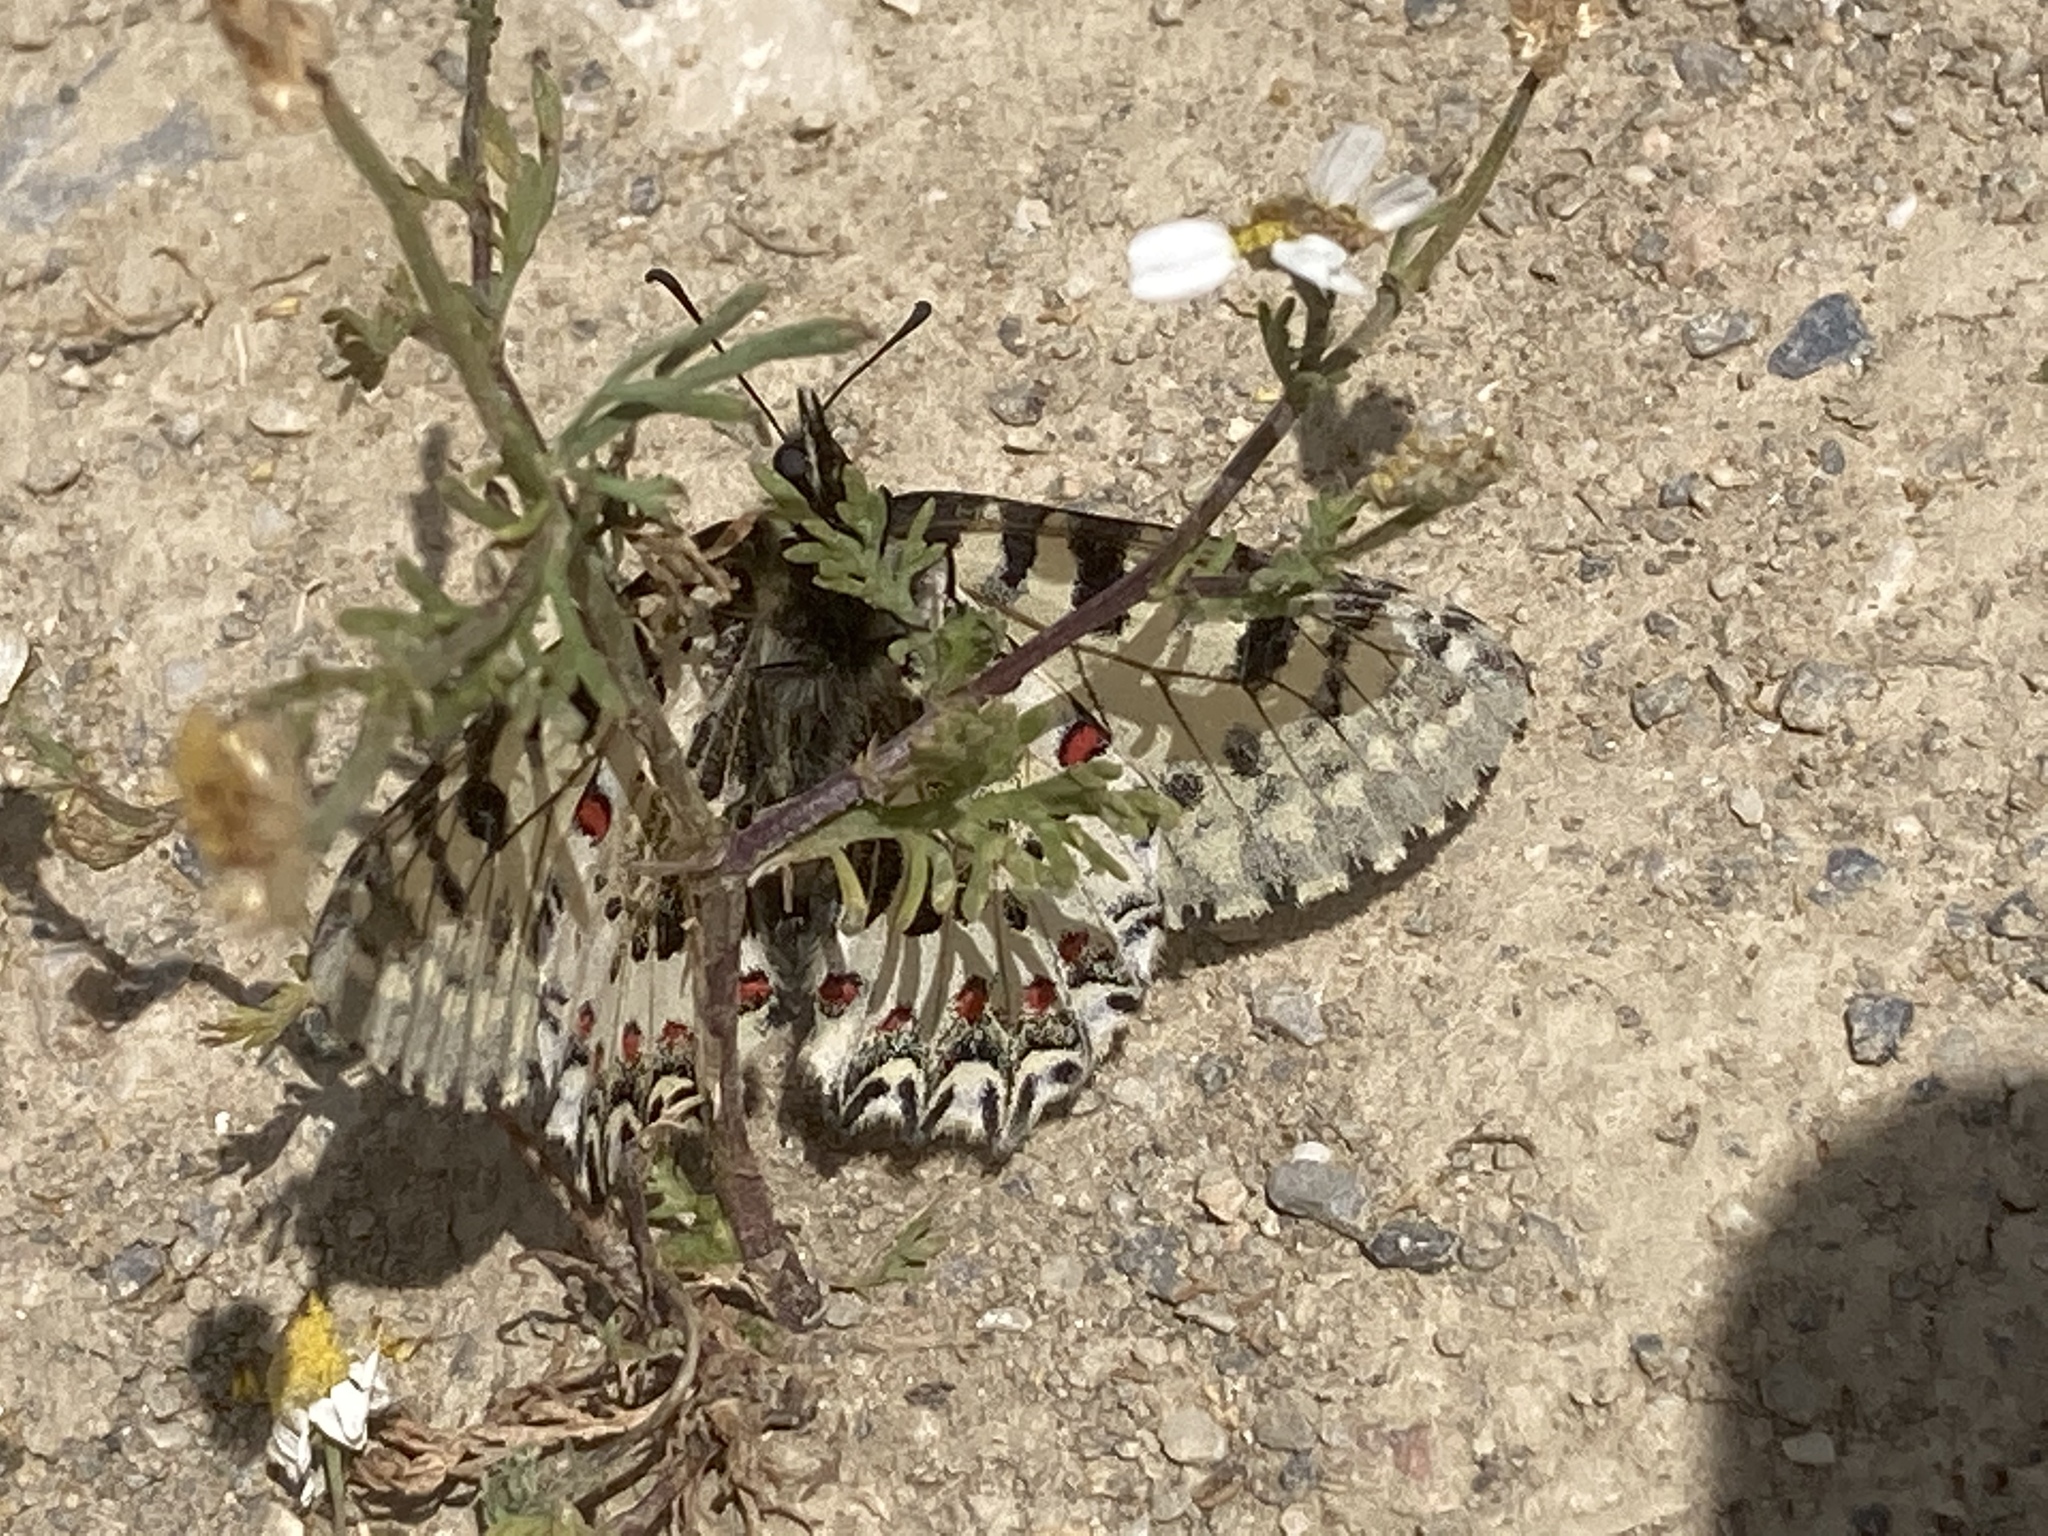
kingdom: Animalia
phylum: Arthropoda
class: Insecta
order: Lepidoptera
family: Papilionidae
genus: Zerynthia
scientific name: Zerynthia cretica
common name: Cretan festoon
